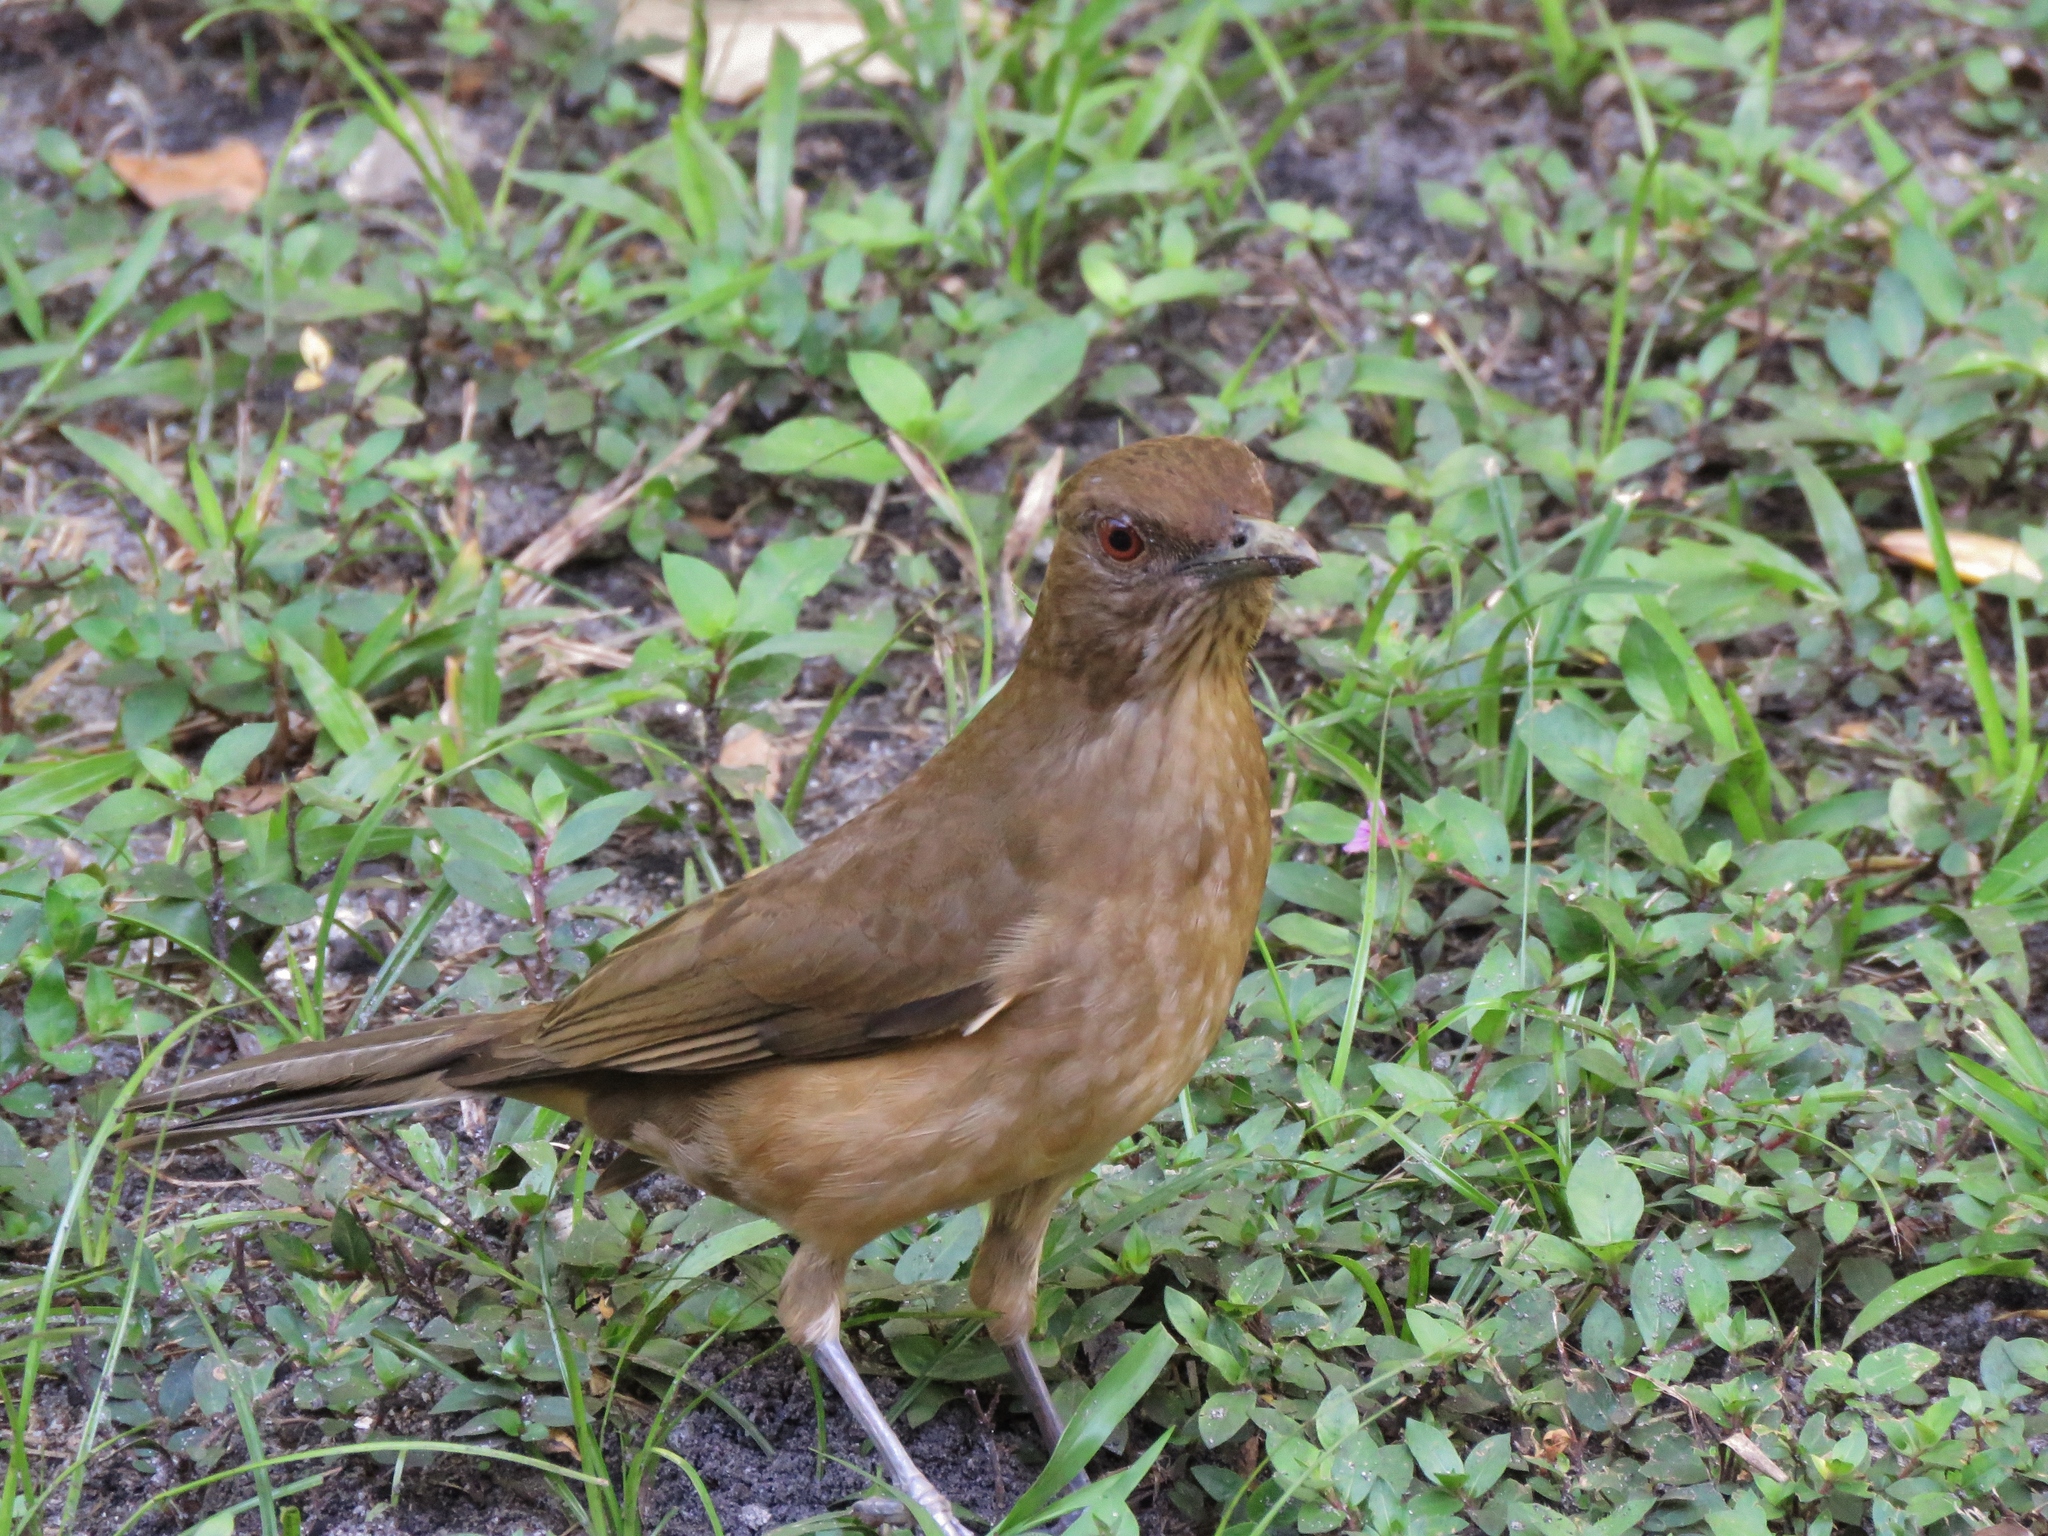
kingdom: Animalia
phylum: Chordata
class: Aves
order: Passeriformes
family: Turdidae
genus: Turdus
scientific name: Turdus grayi
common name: Clay-colored thrush
